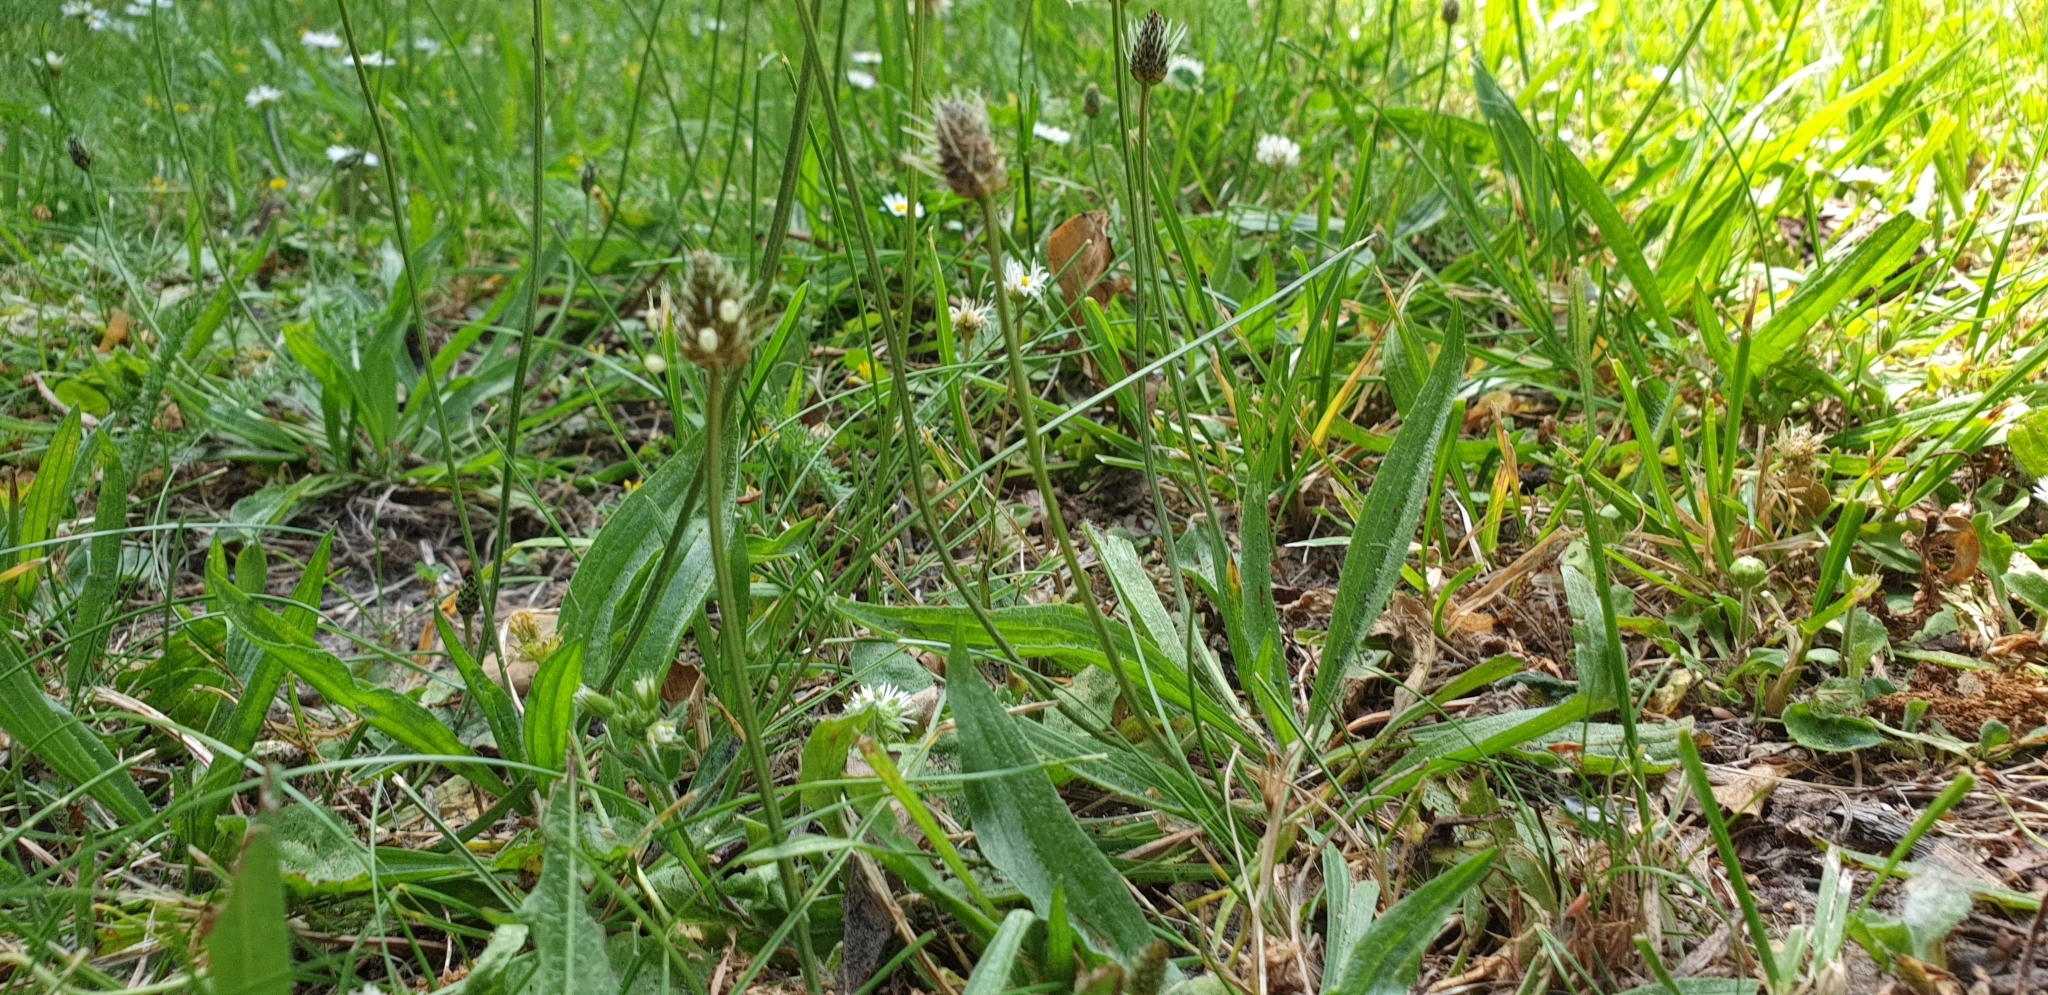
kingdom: Plantae
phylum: Tracheophyta
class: Magnoliopsida
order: Lamiales
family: Plantaginaceae
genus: Plantago
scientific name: Plantago lanceolata
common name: Ribwort plantain
